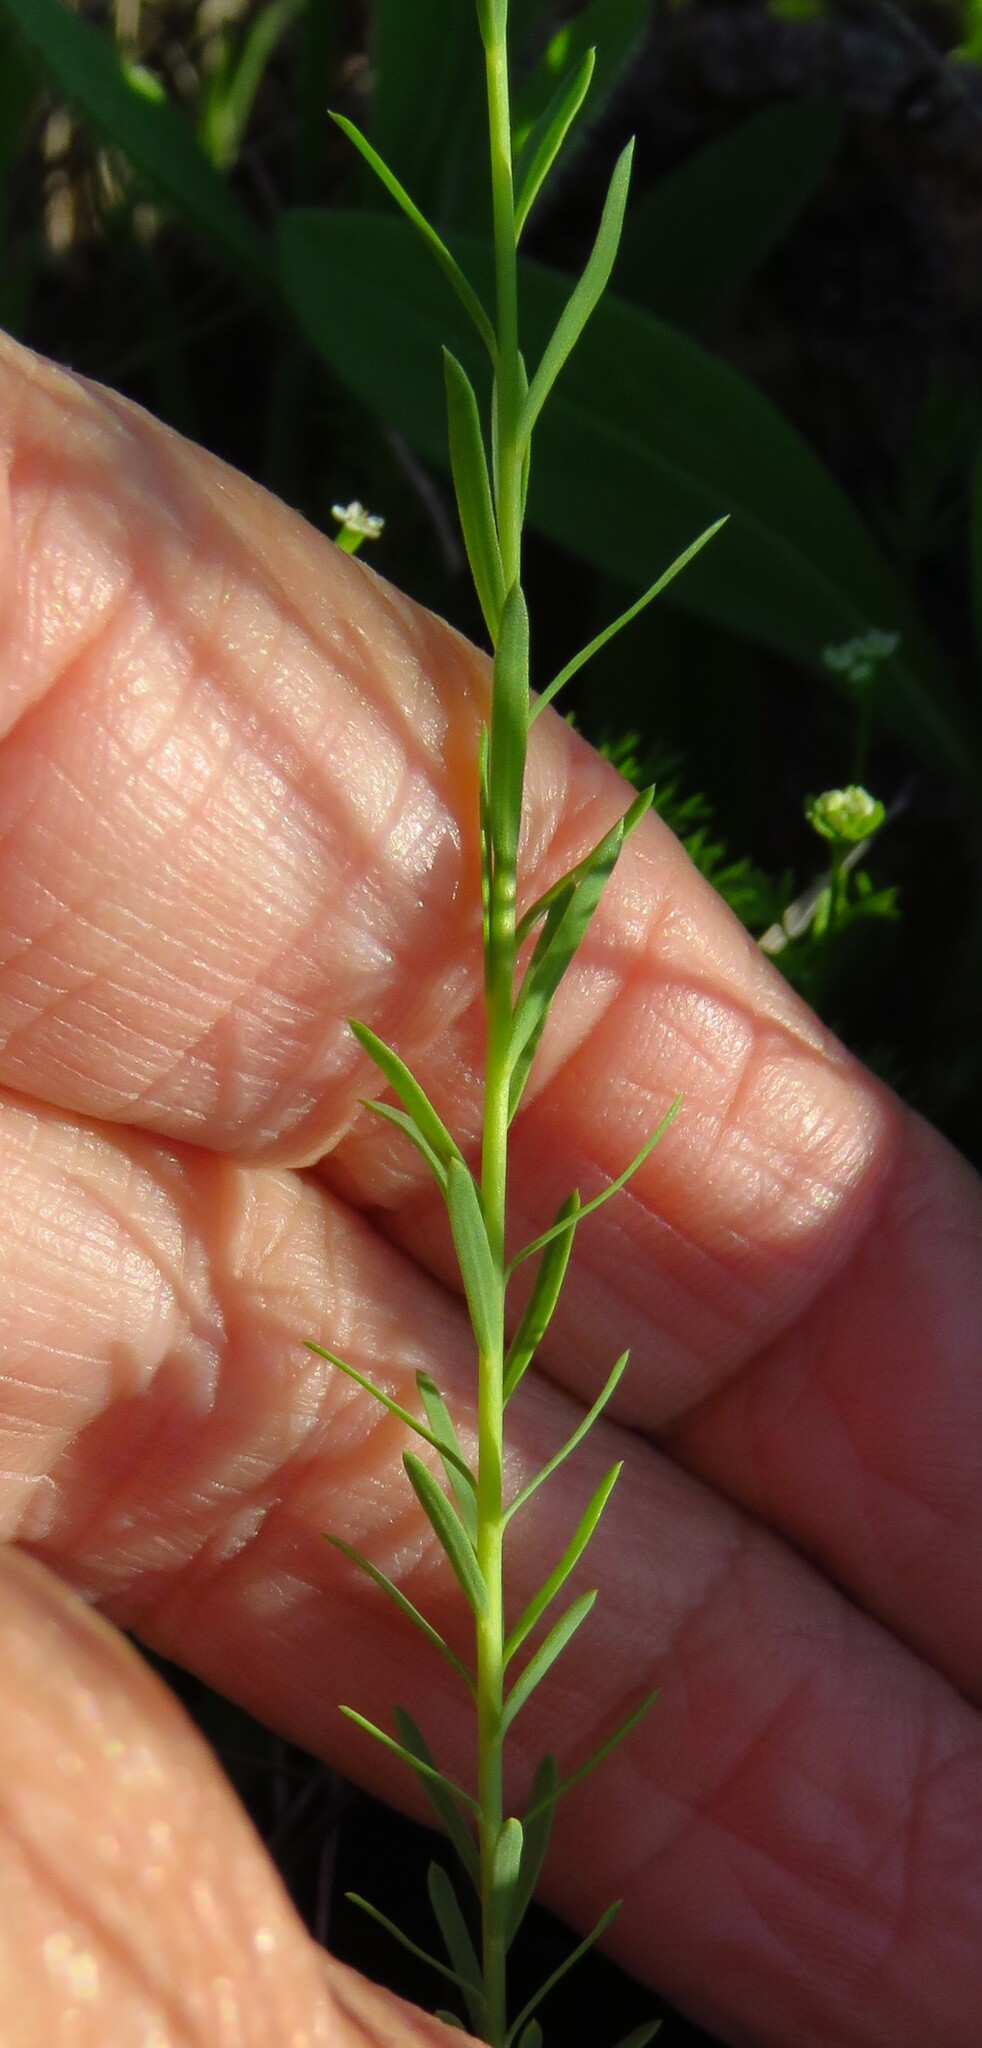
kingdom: Plantae
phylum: Tracheophyta
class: Magnoliopsida
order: Malpighiales
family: Linaceae
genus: Linum
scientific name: Linum pratense
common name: Norton's flax
